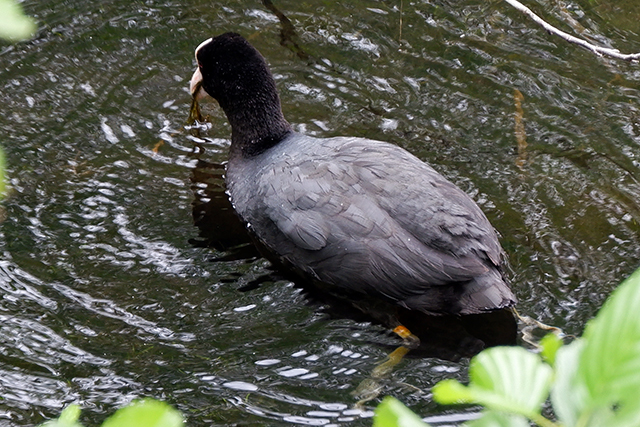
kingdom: Animalia
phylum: Chordata
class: Aves
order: Gruiformes
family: Rallidae
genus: Fulica
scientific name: Fulica atra
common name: Eurasian coot
